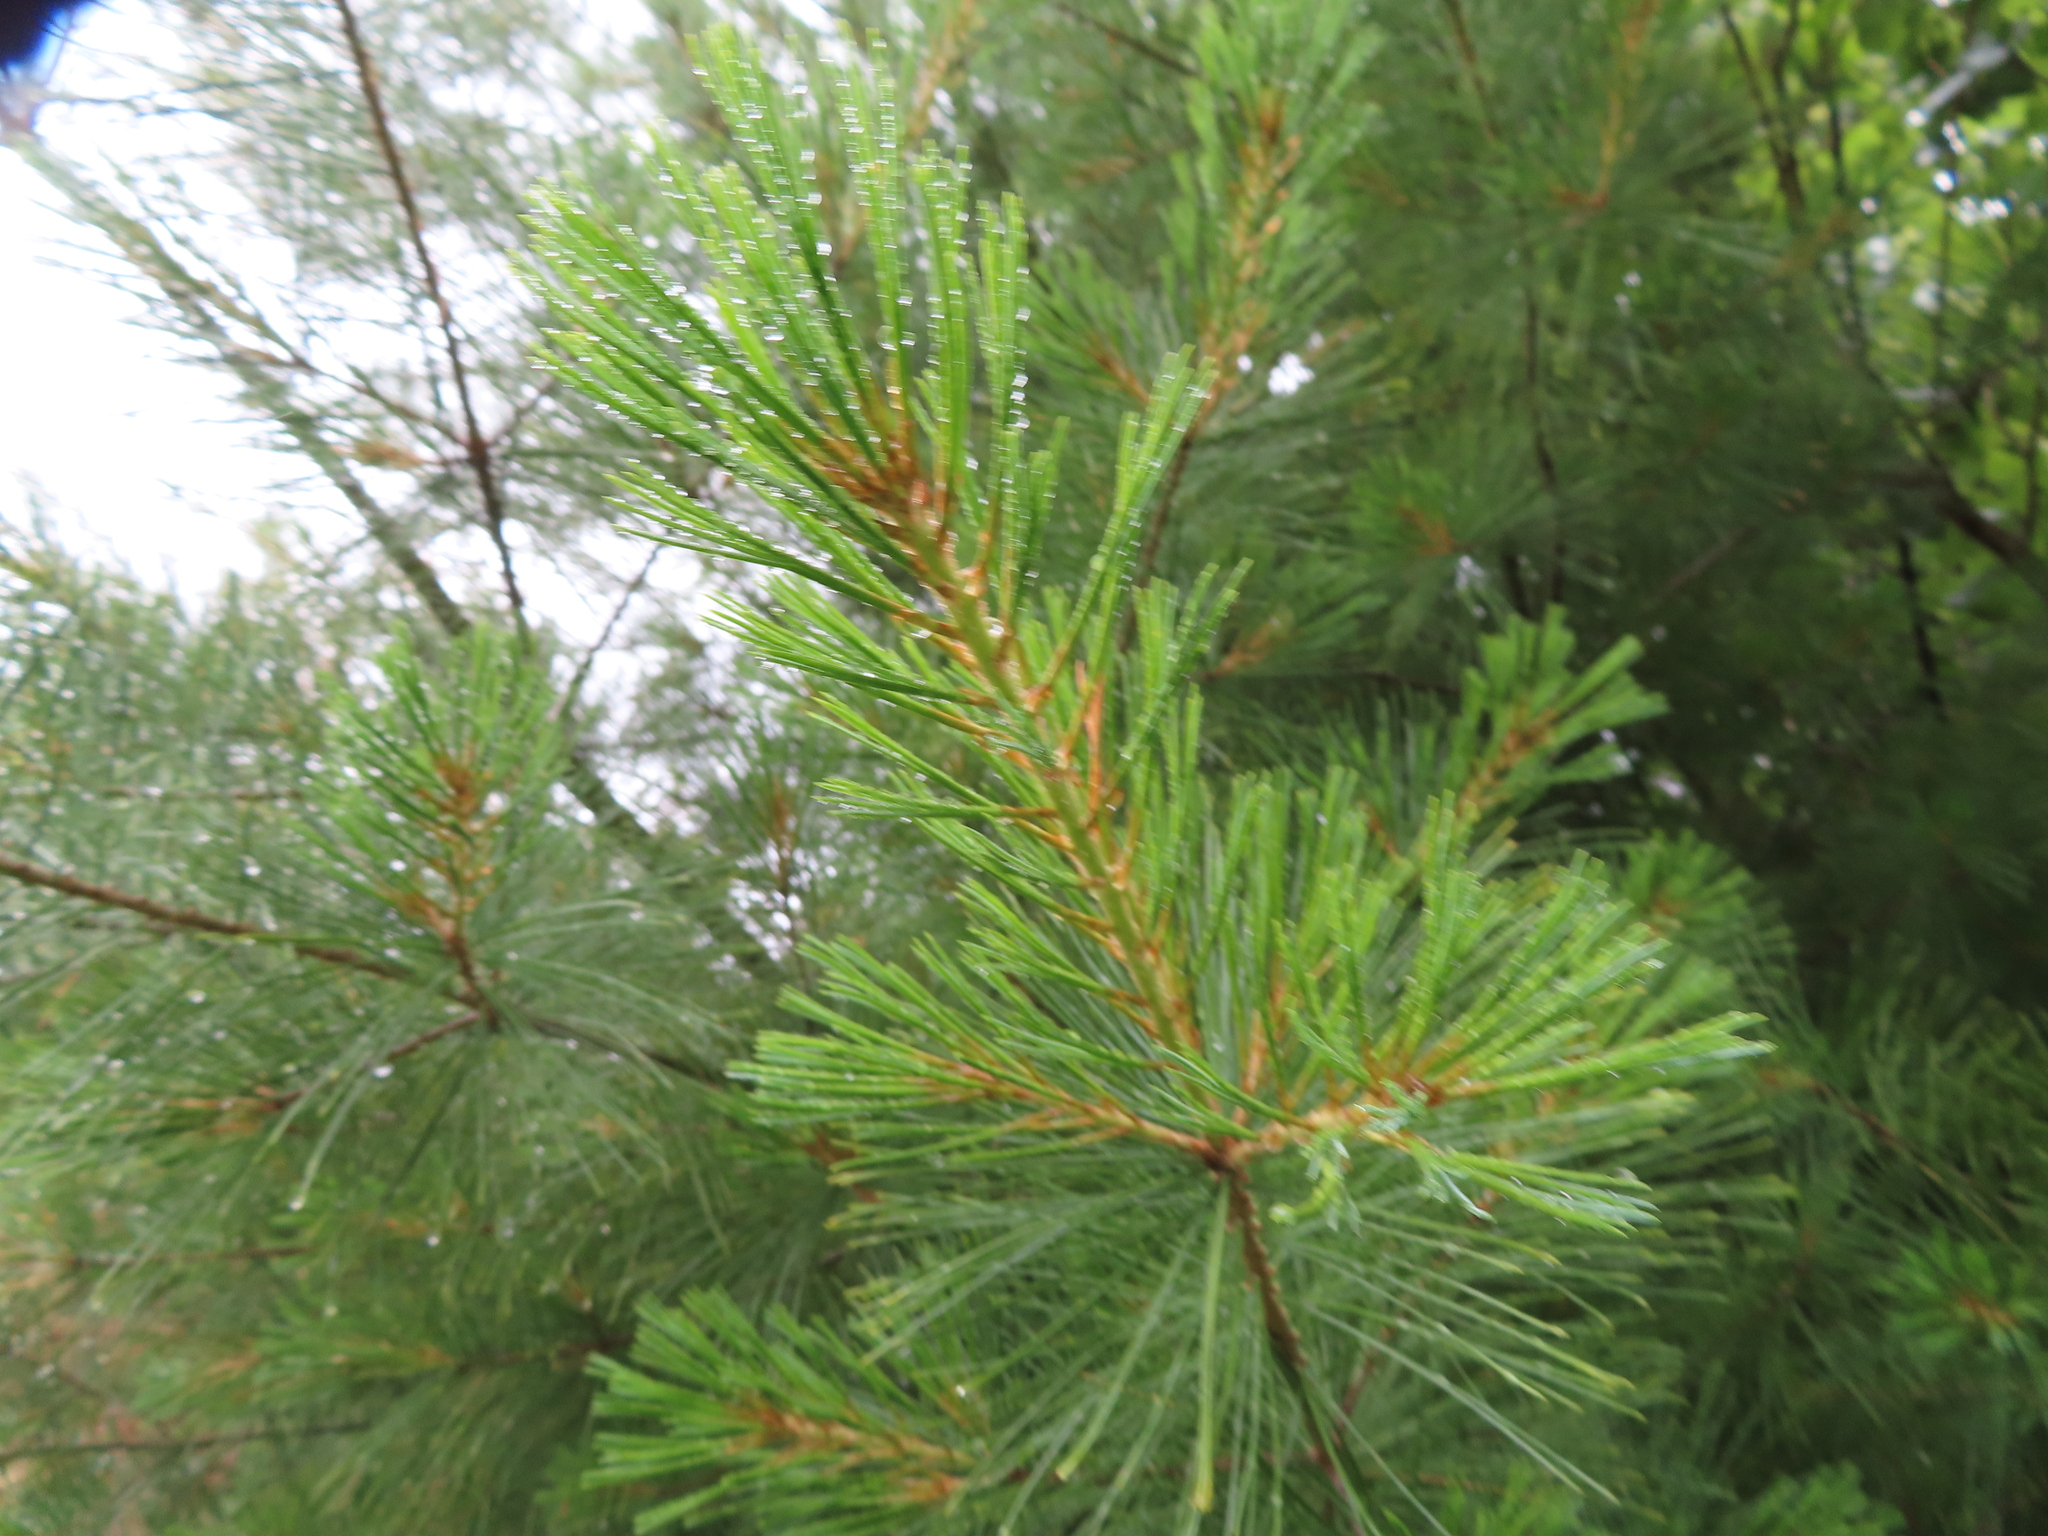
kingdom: Plantae
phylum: Tracheophyta
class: Pinopsida
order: Pinales
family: Pinaceae
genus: Pinus
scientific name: Pinus strobus
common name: Weymouth pine
